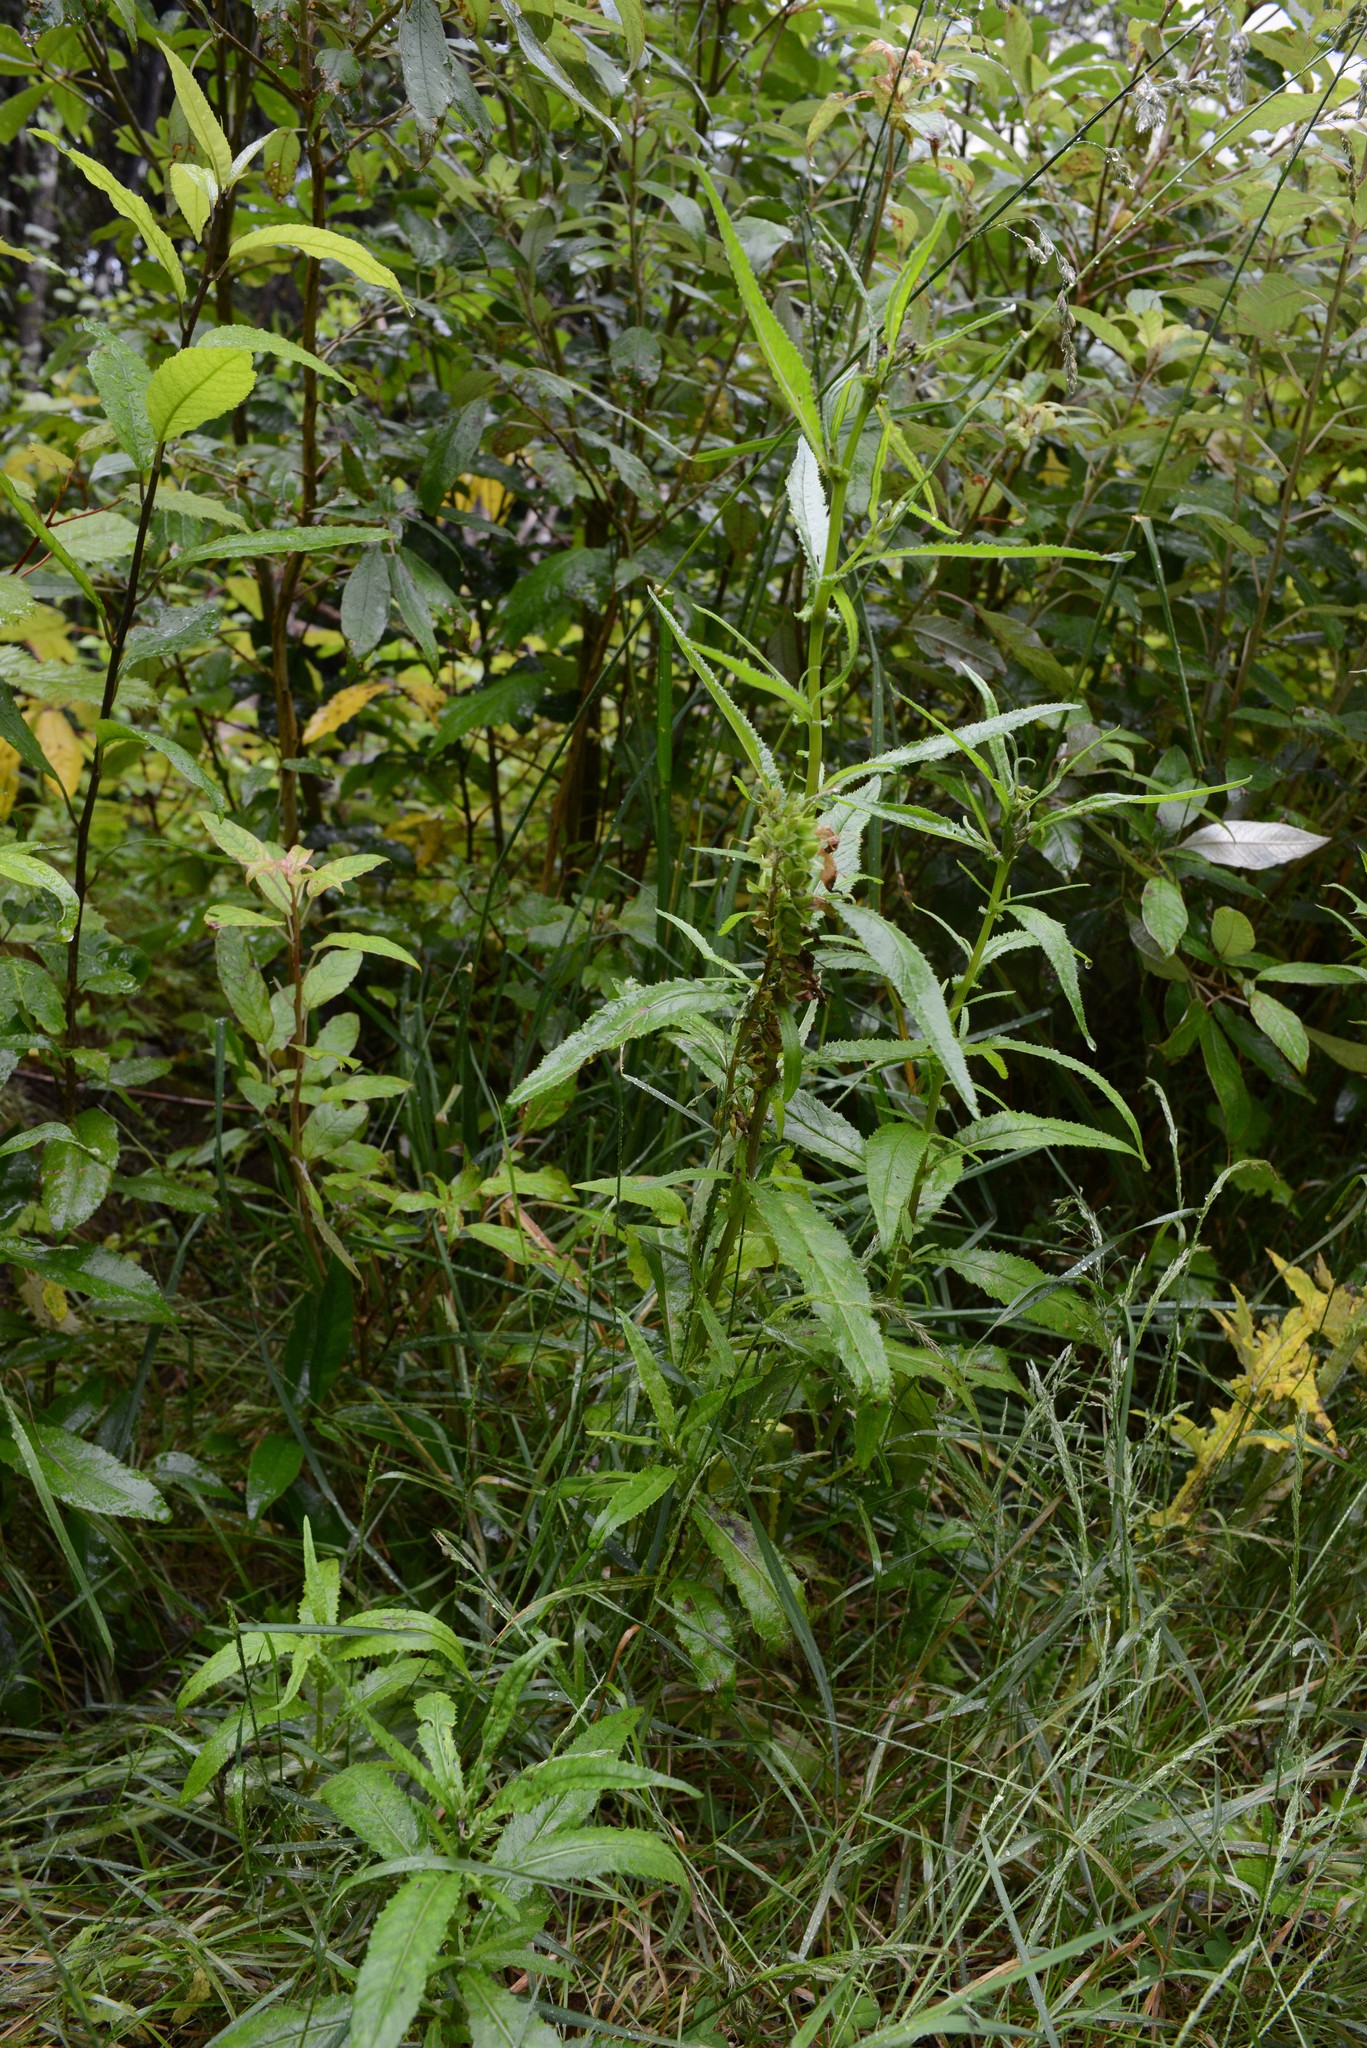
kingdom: Plantae
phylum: Tracheophyta
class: Magnoliopsida
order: Asterales
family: Asteraceae
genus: Senecio
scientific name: Senecio minimus
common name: Toothed fireweed
